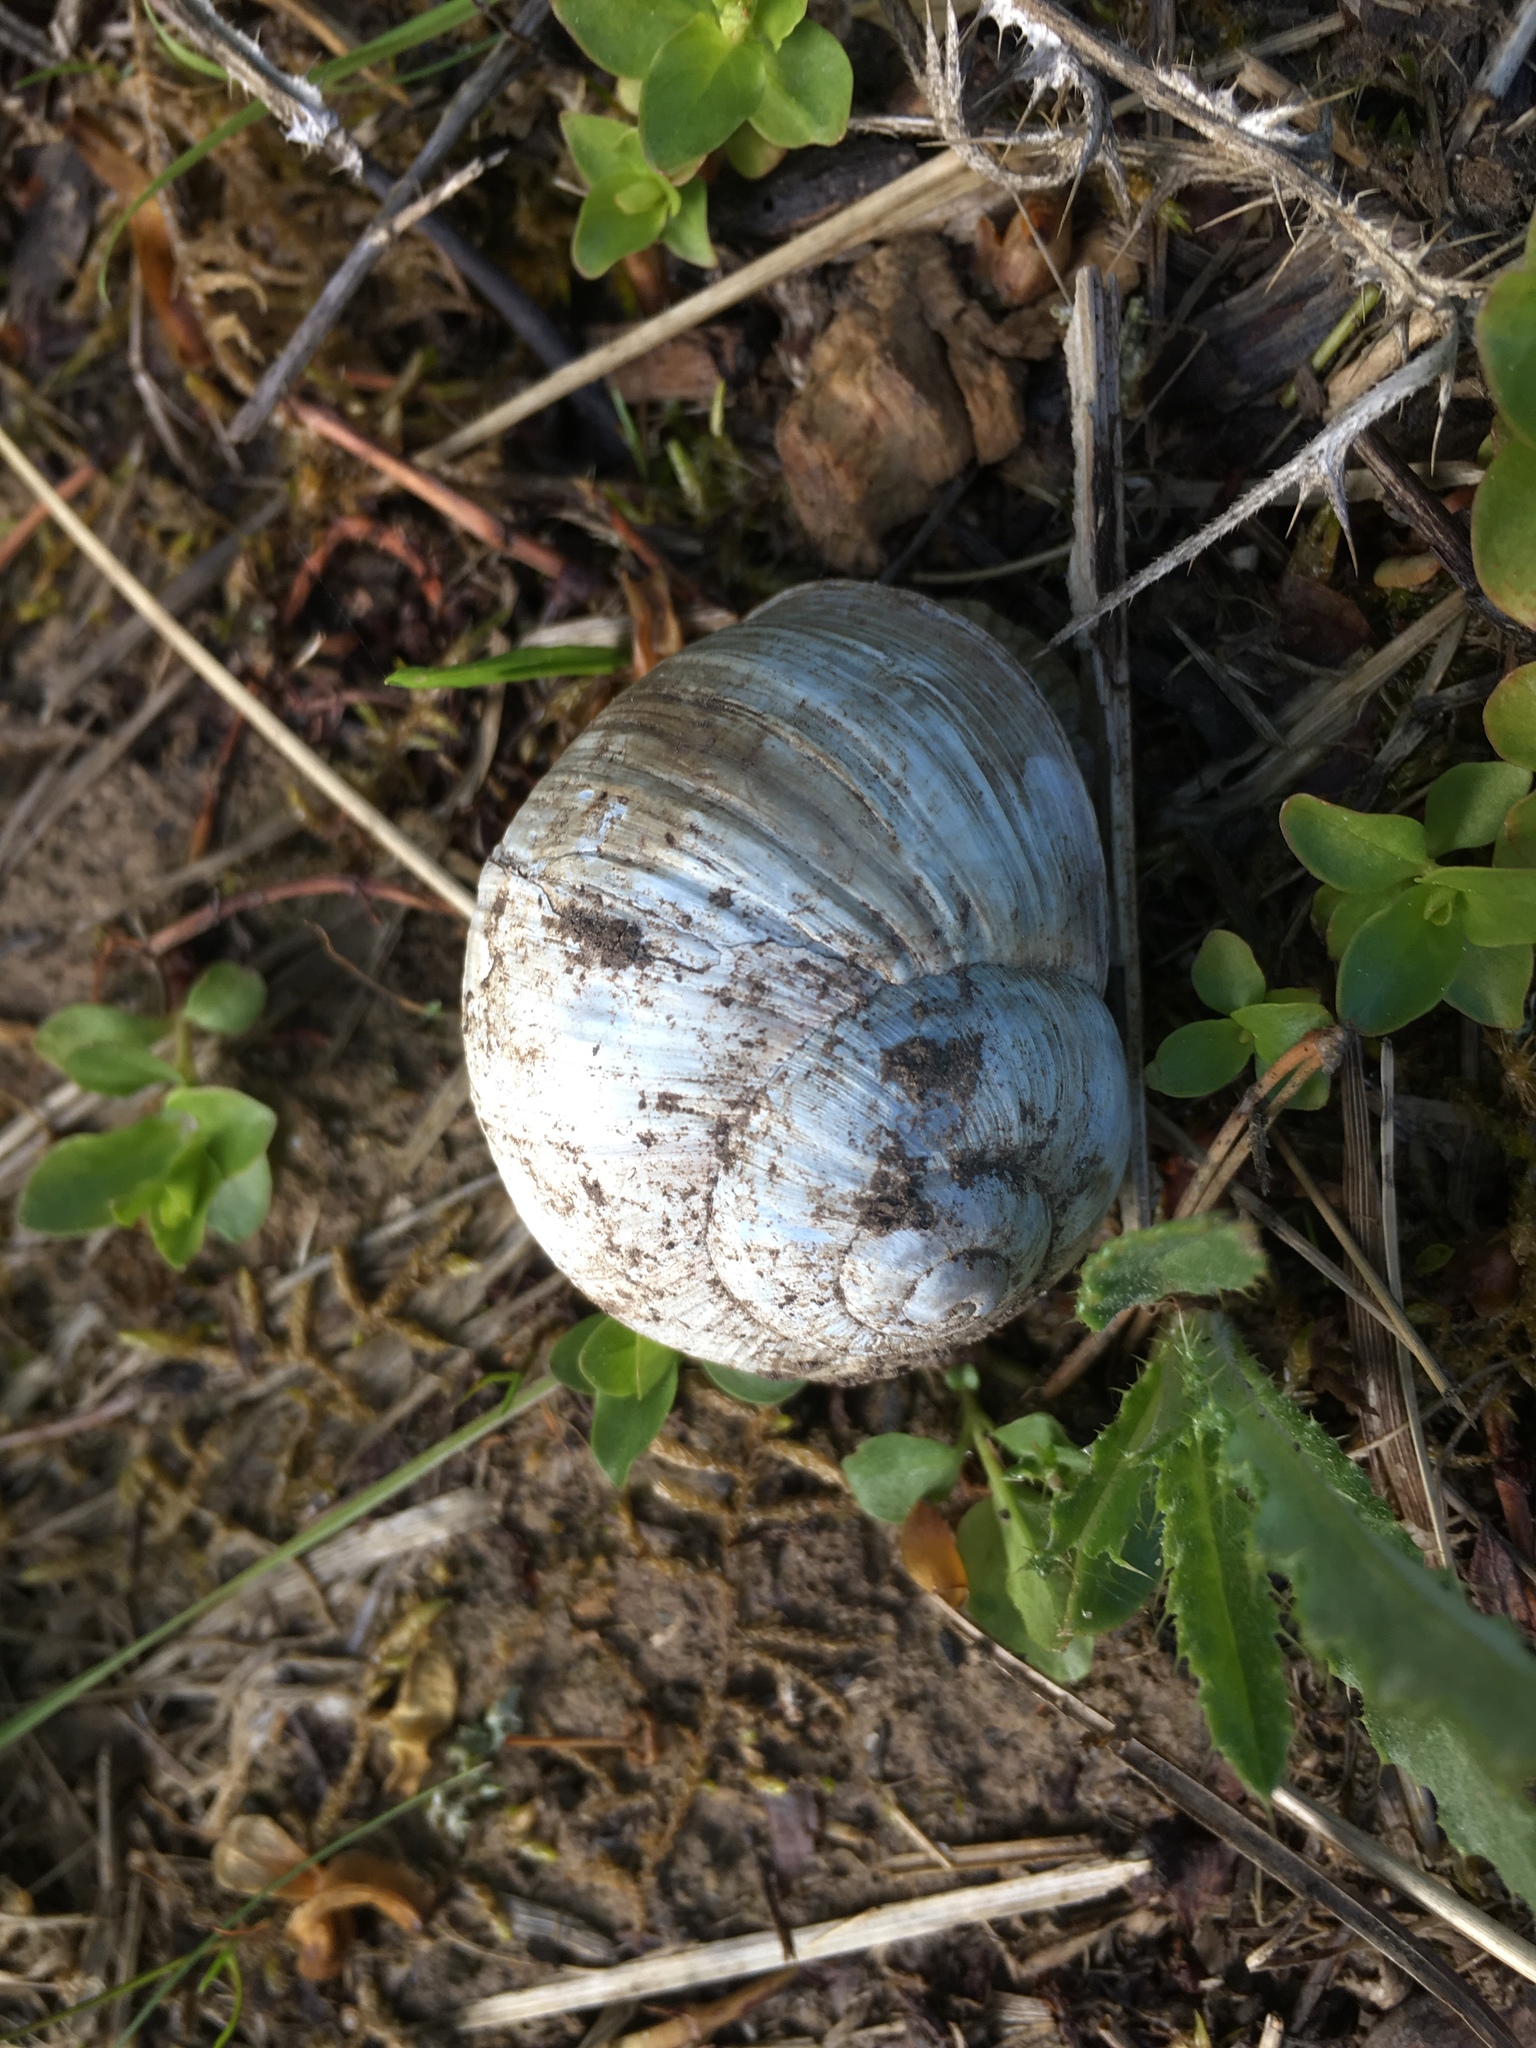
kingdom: Animalia
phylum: Mollusca
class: Gastropoda
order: Stylommatophora
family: Helicidae
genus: Helix
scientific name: Helix pomatia
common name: Roman snail
